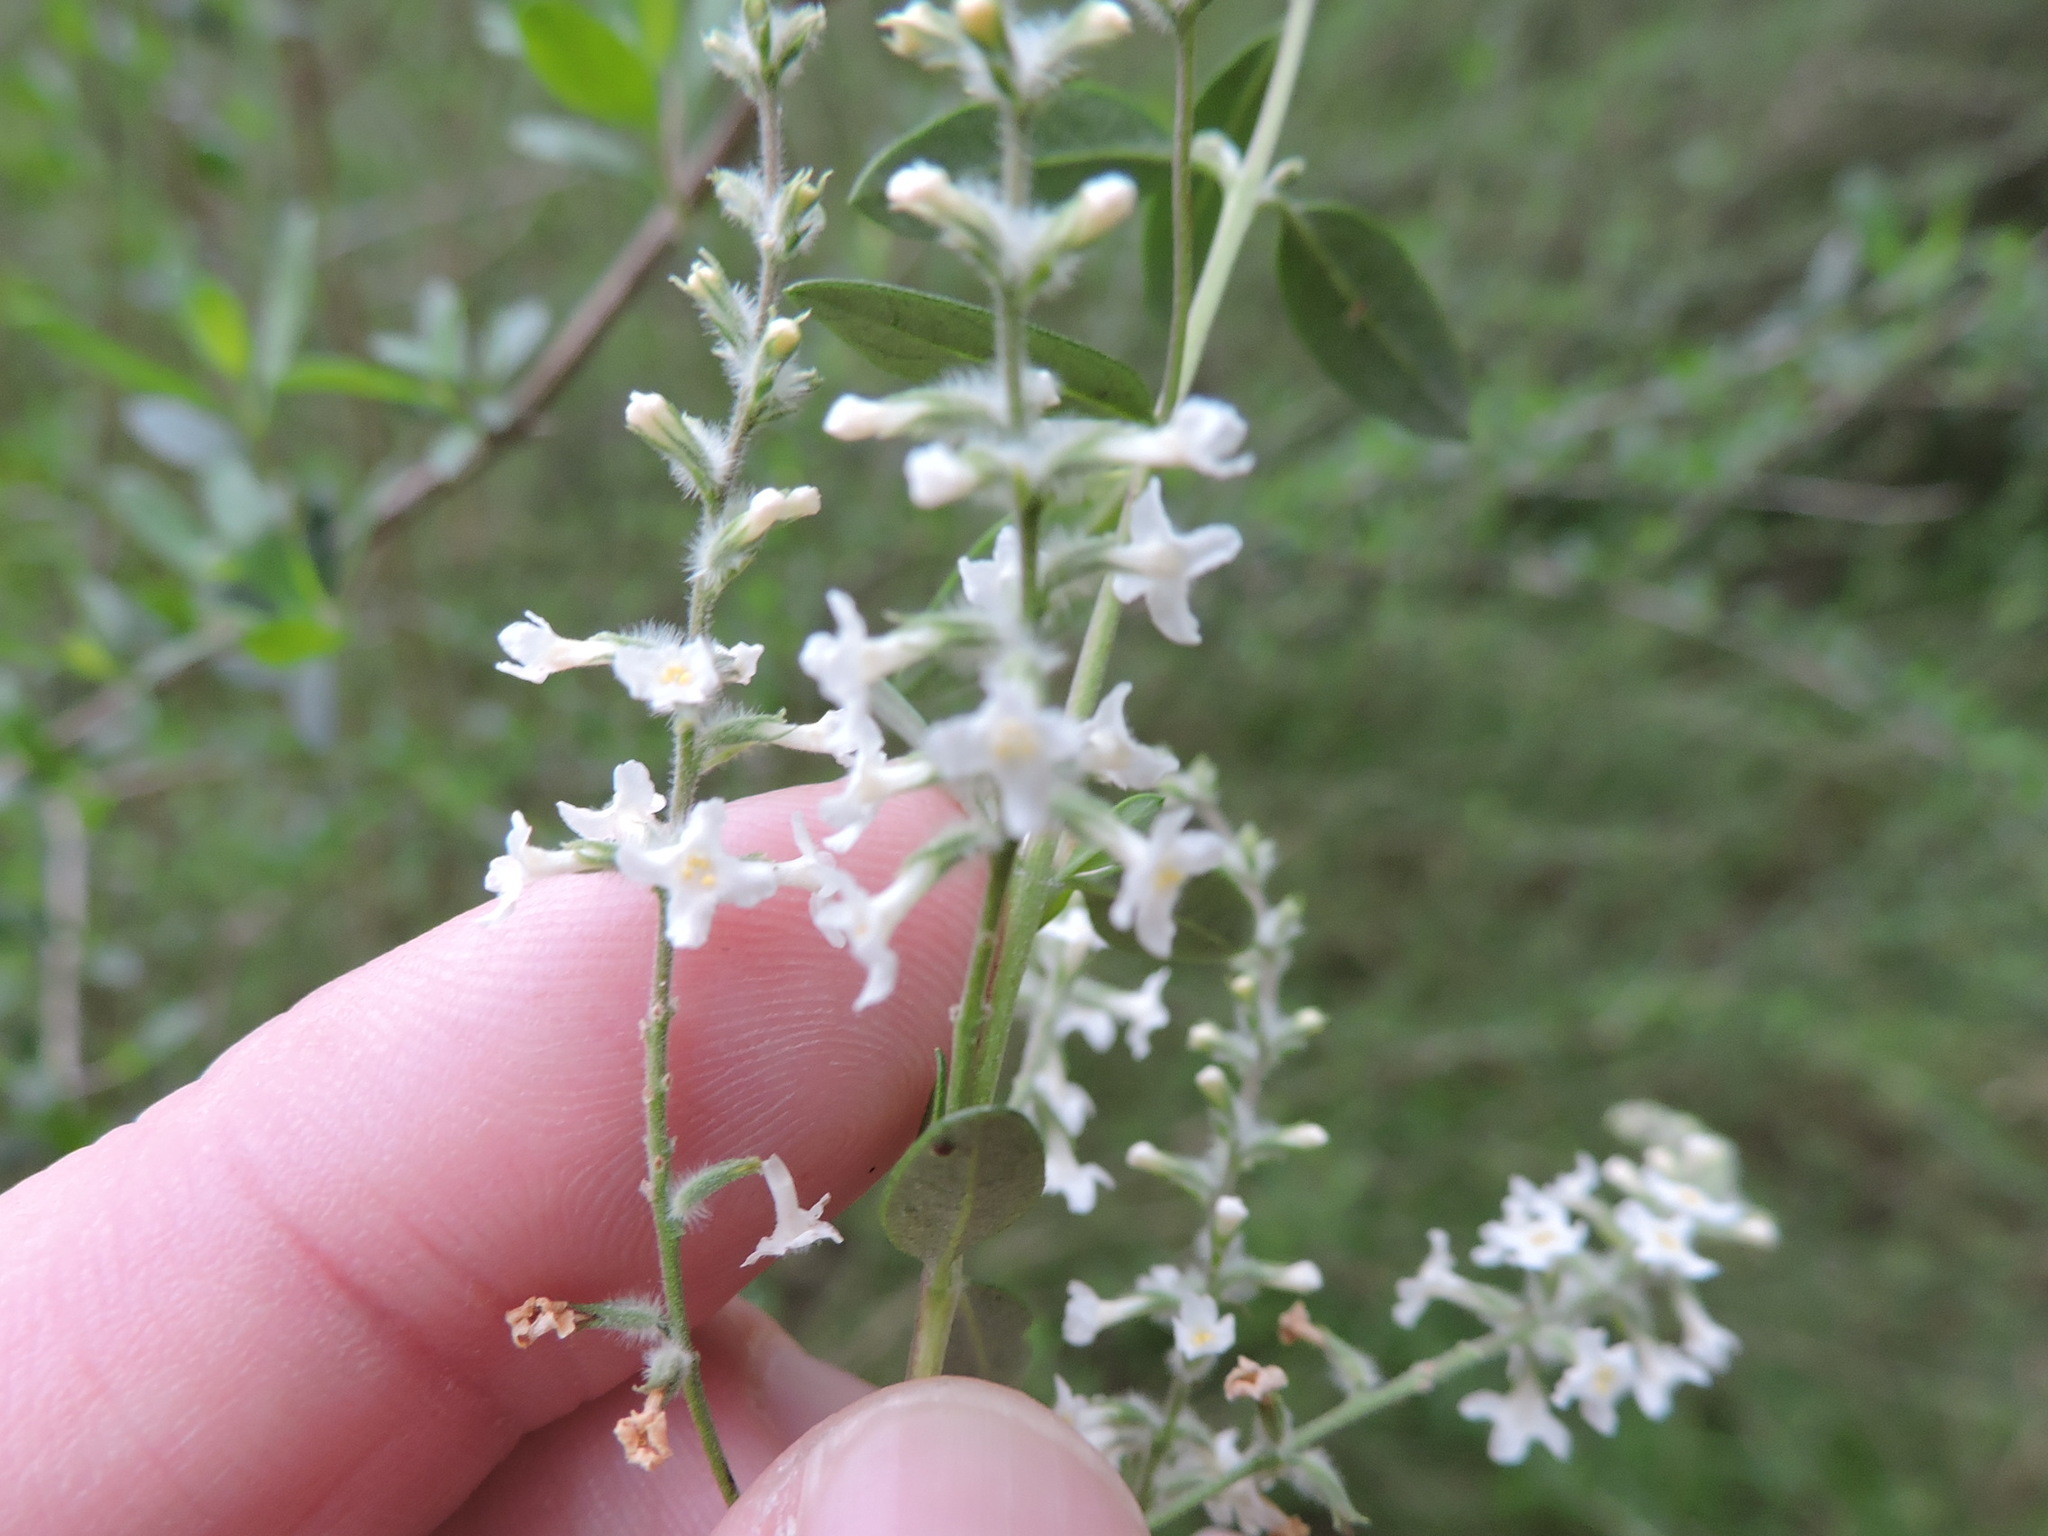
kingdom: Plantae
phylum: Tracheophyta
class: Magnoliopsida
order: Lamiales
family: Verbenaceae
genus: Aloysia
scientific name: Aloysia gratissima
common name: Common bee-brush
